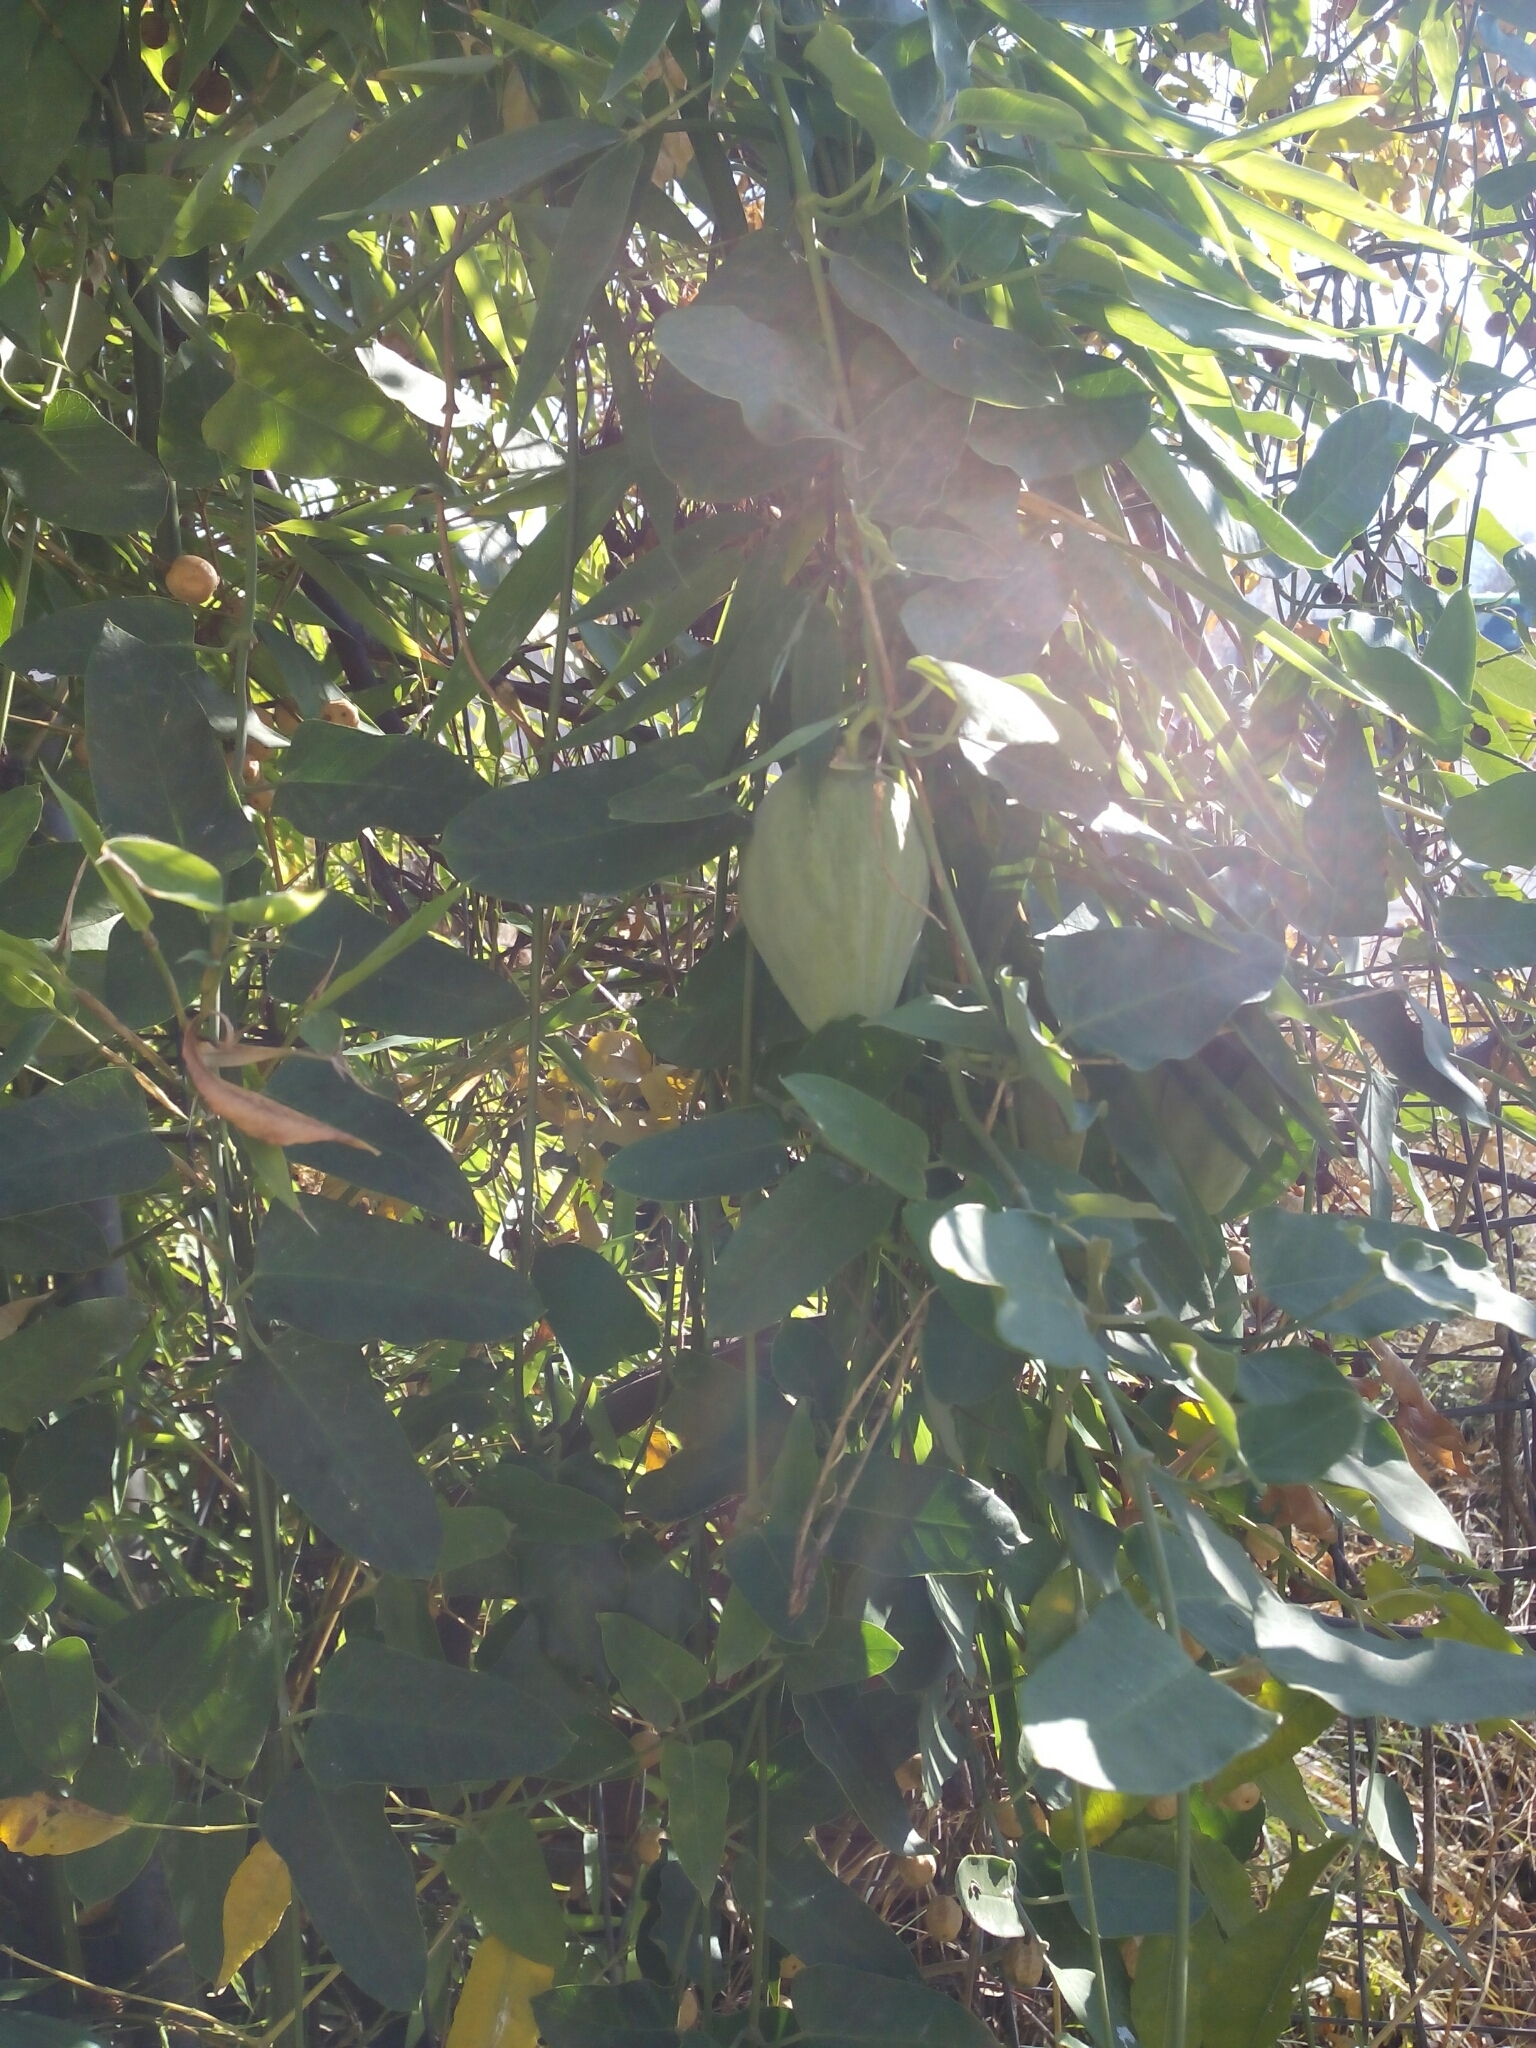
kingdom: Plantae
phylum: Tracheophyta
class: Magnoliopsida
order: Gentianales
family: Apocynaceae
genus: Araujia
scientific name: Araujia sericifera
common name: White bladderflower
